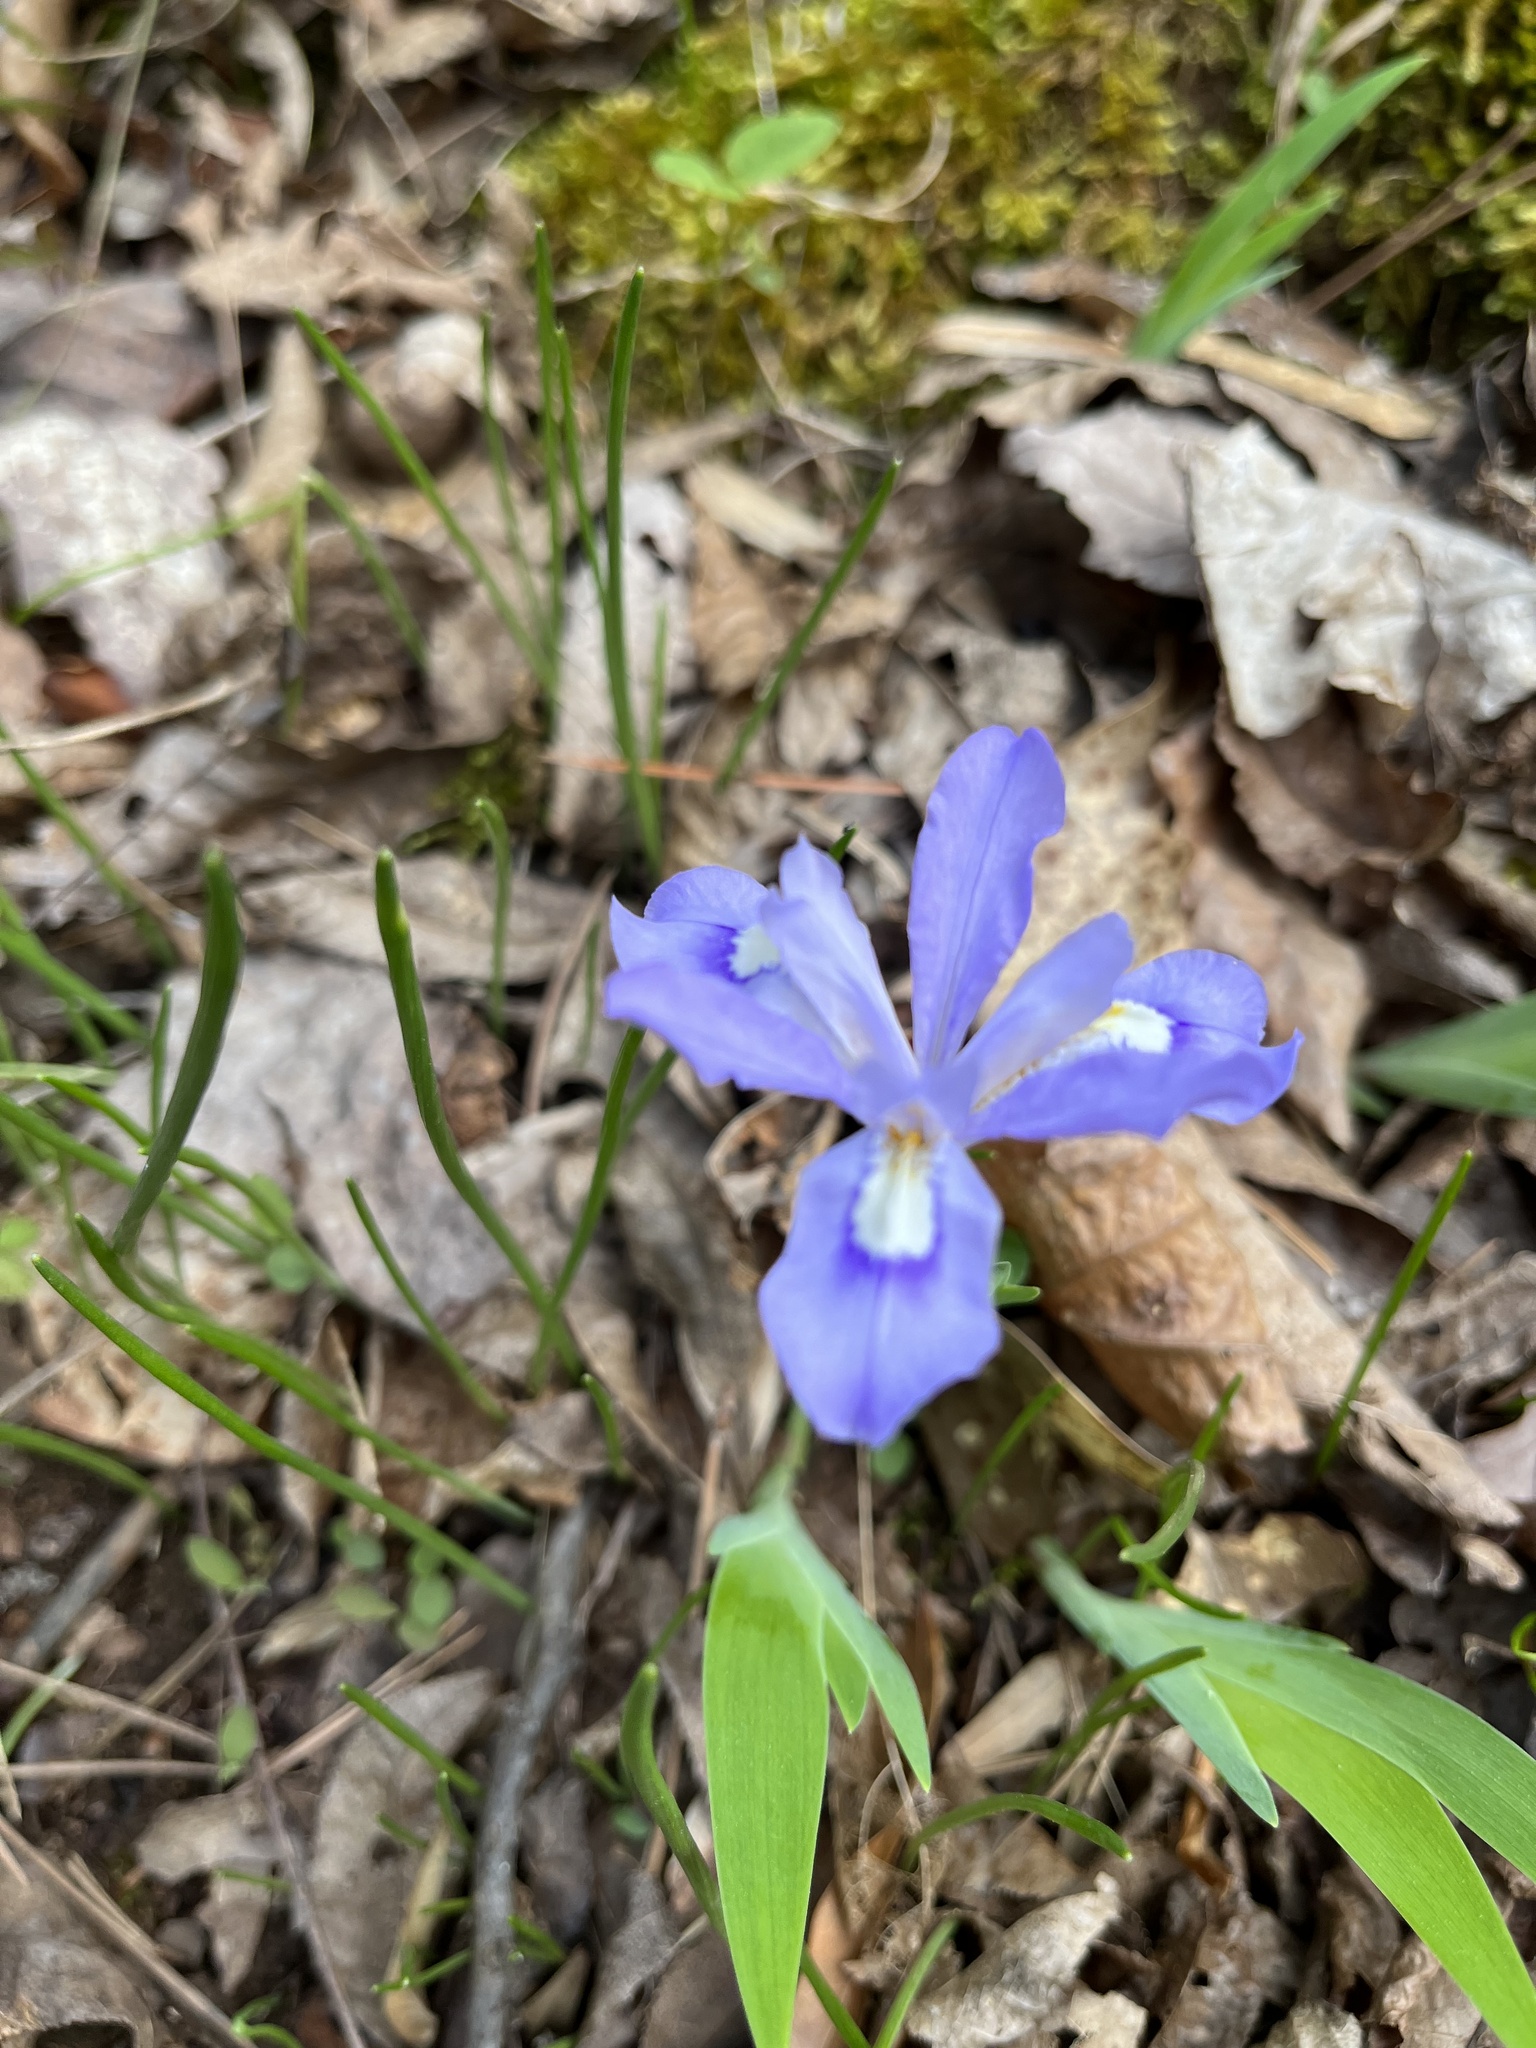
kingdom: Plantae
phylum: Tracheophyta
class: Liliopsida
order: Asparagales
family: Iridaceae
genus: Iris
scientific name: Iris cristata
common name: Crested iris
